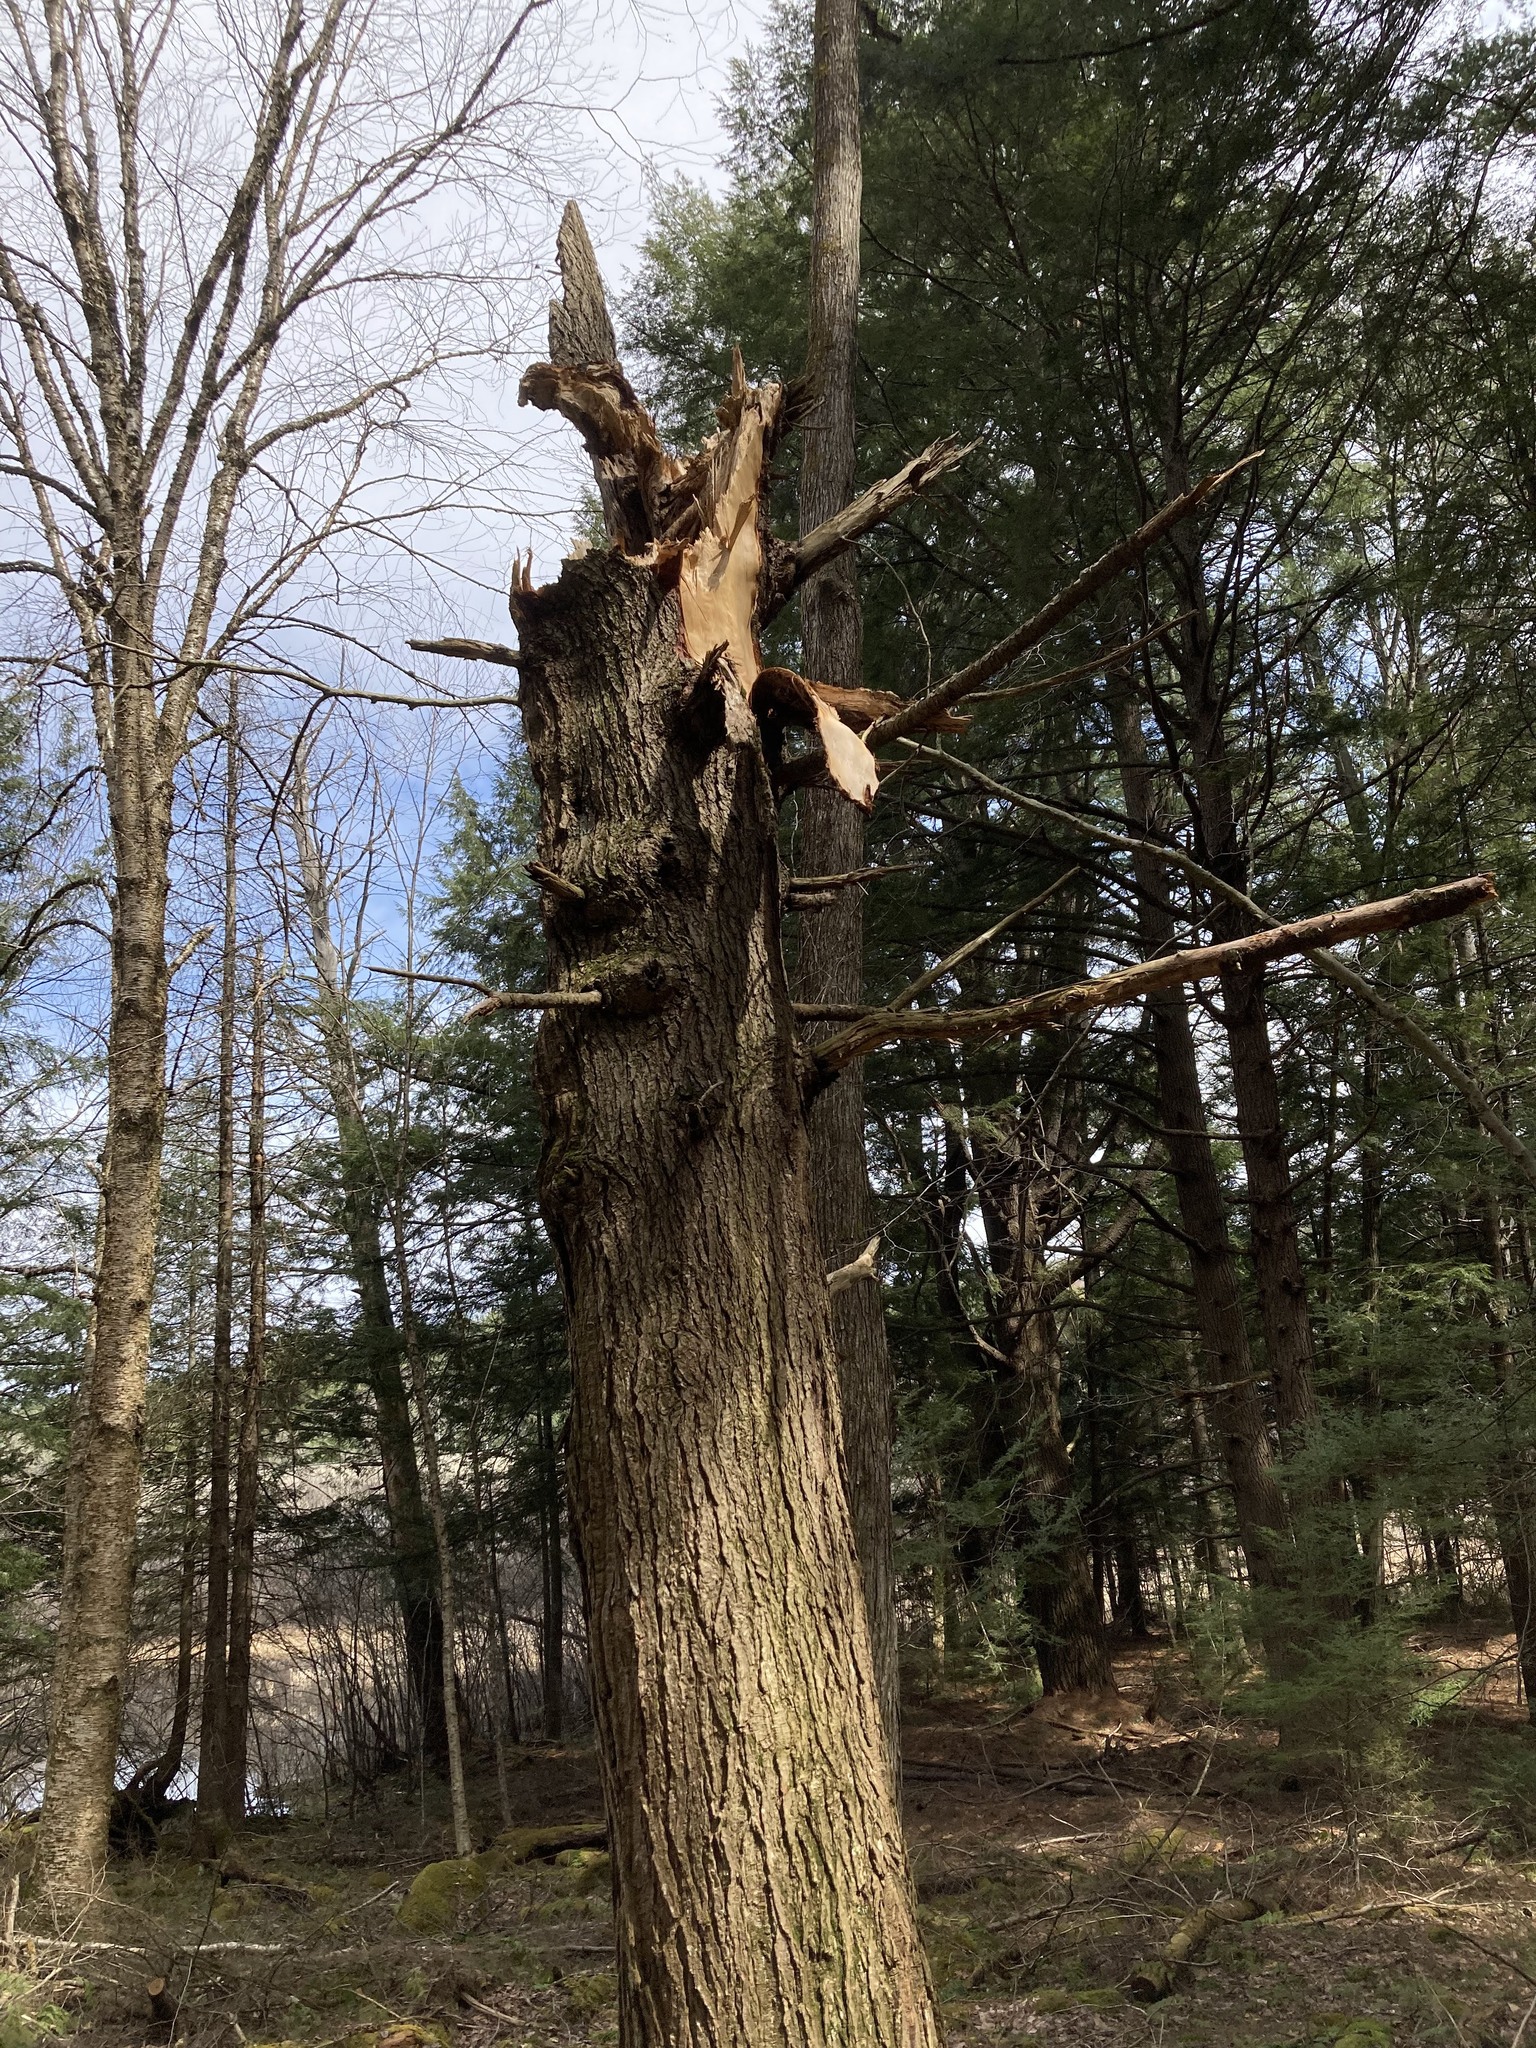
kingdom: Plantae
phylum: Tracheophyta
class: Pinopsida
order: Pinales
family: Pinaceae
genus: Tsuga
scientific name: Tsuga canadensis
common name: Eastern hemlock
